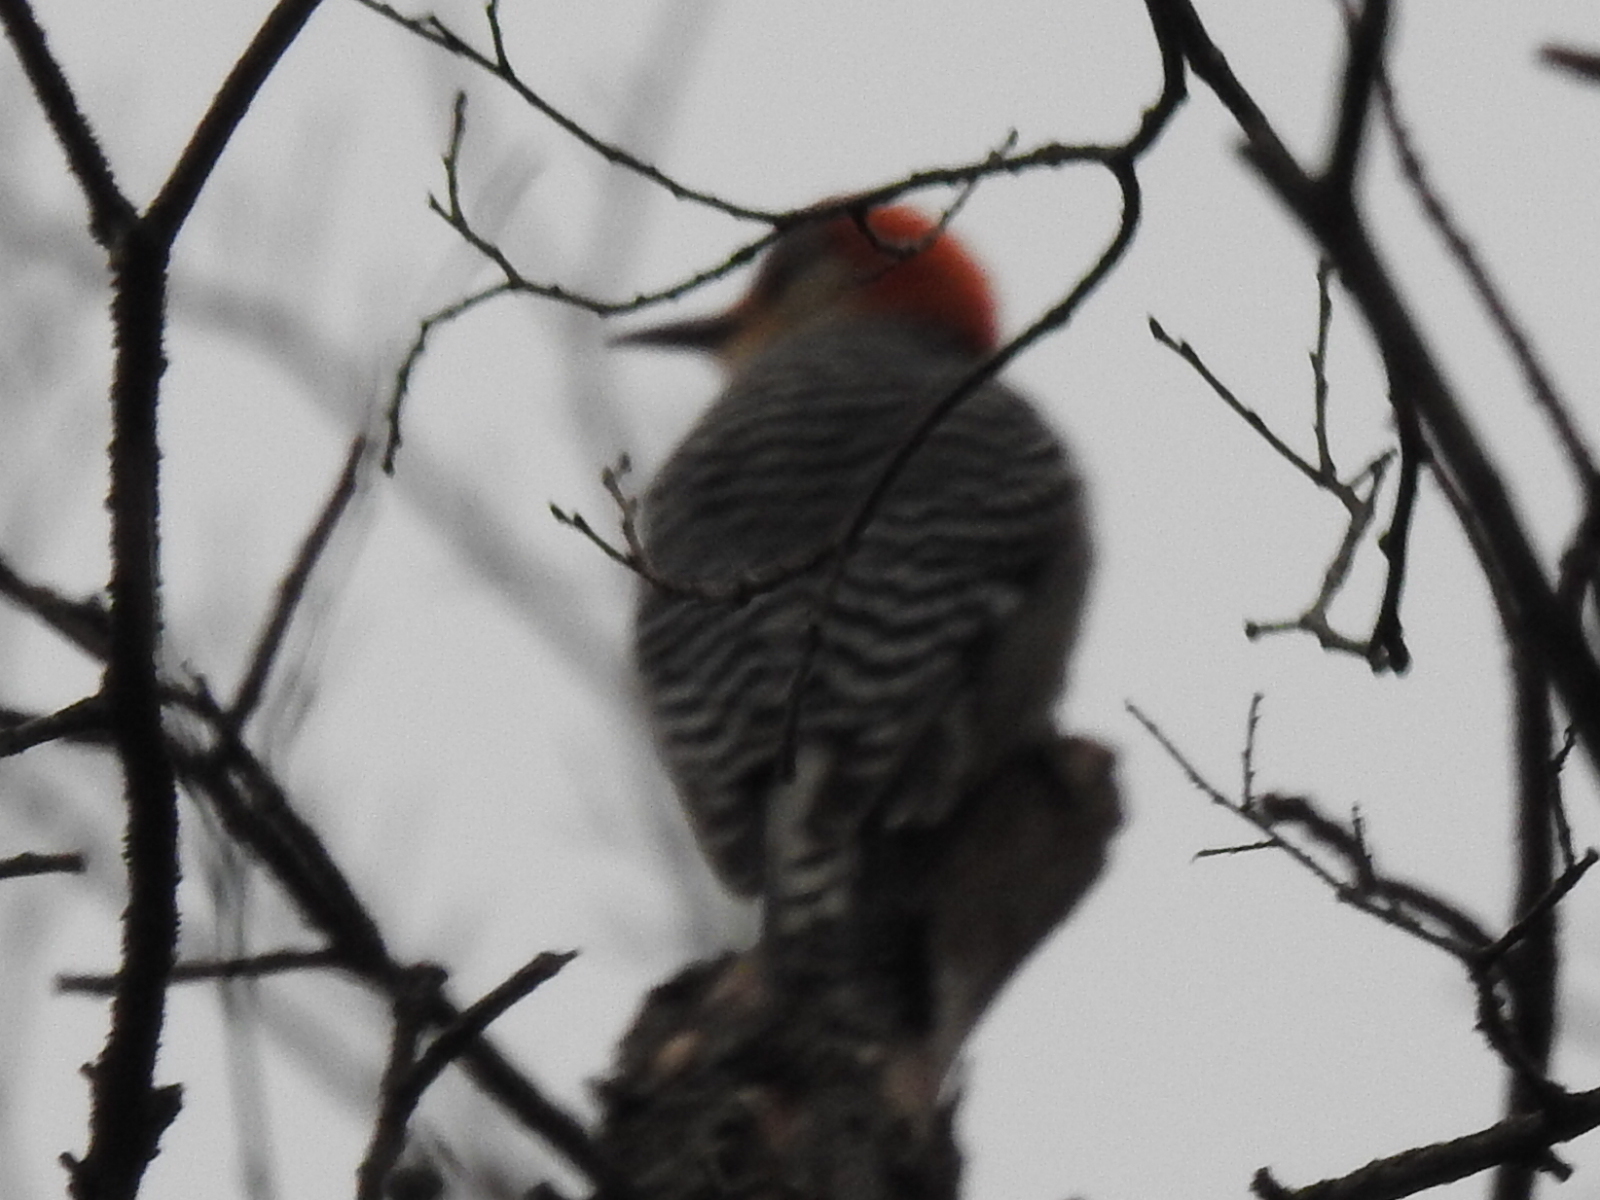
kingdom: Animalia
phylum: Chordata
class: Aves
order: Piciformes
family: Picidae
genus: Melanerpes
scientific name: Melanerpes carolinus
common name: Red-bellied woodpecker
